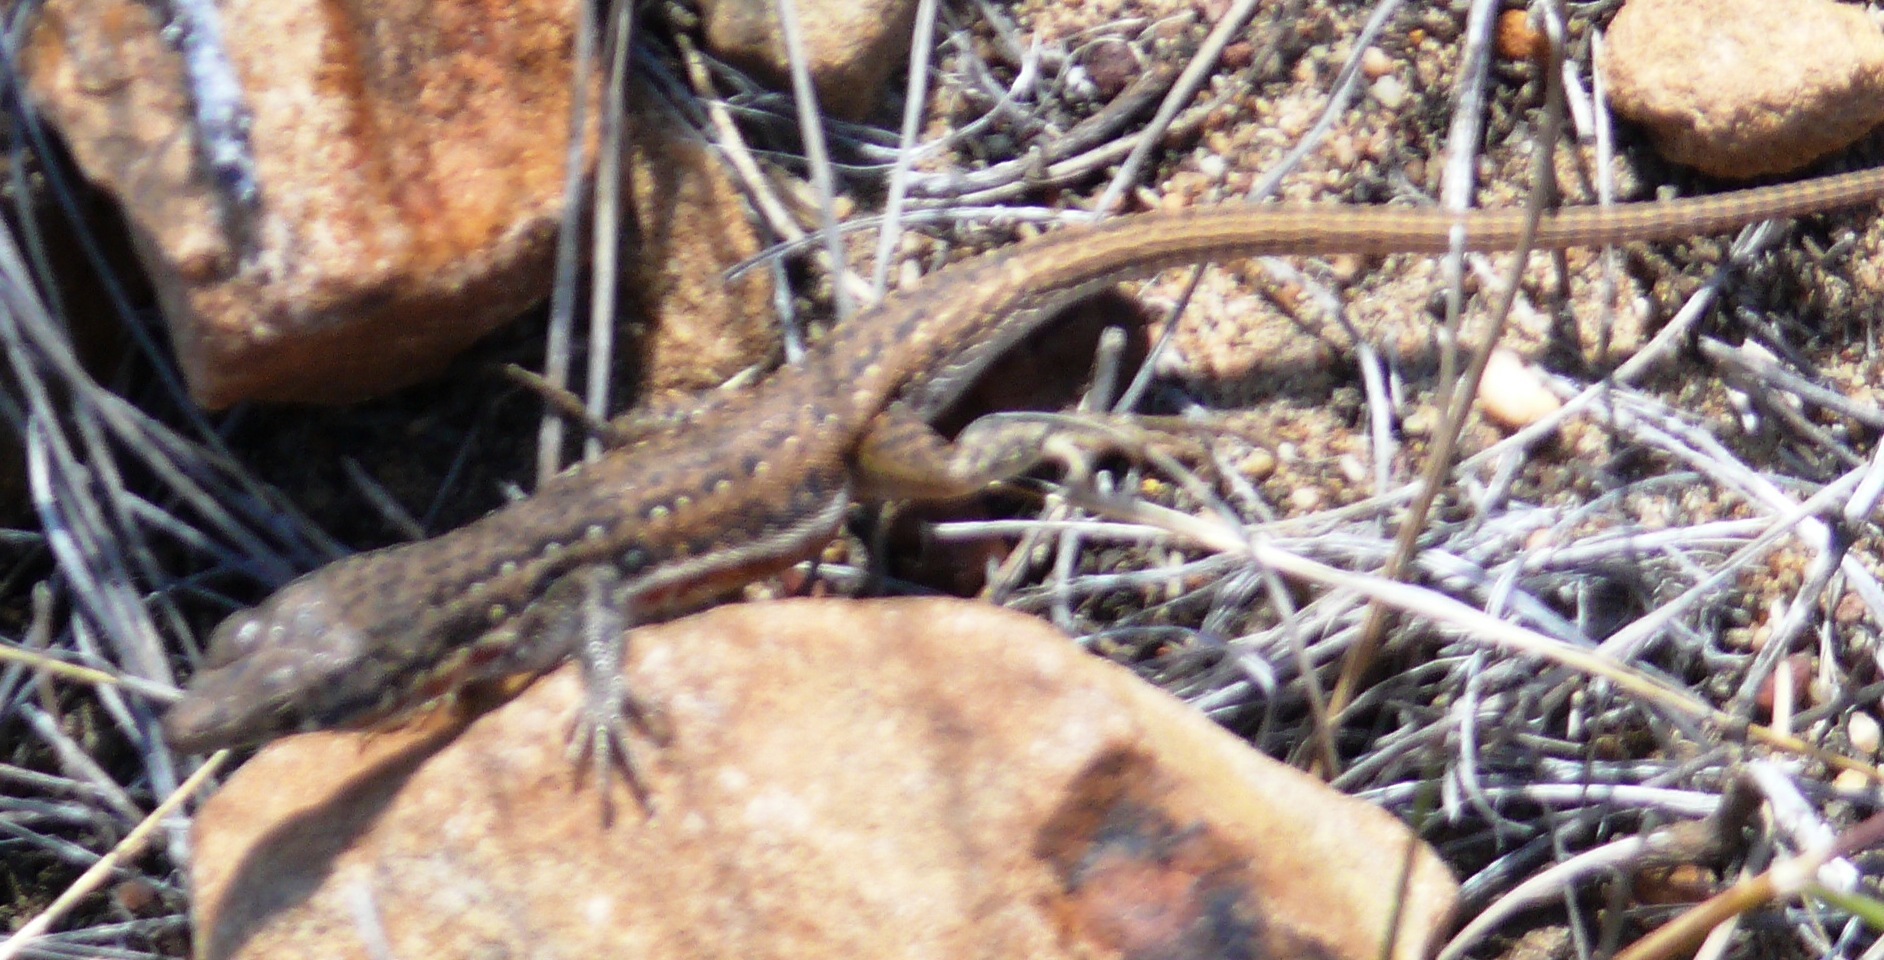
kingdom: Animalia
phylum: Chordata
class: Squamata
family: Lacertidae
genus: Pedioplanis
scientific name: Pedioplanis lineoocellata
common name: Spotted sand lizard
